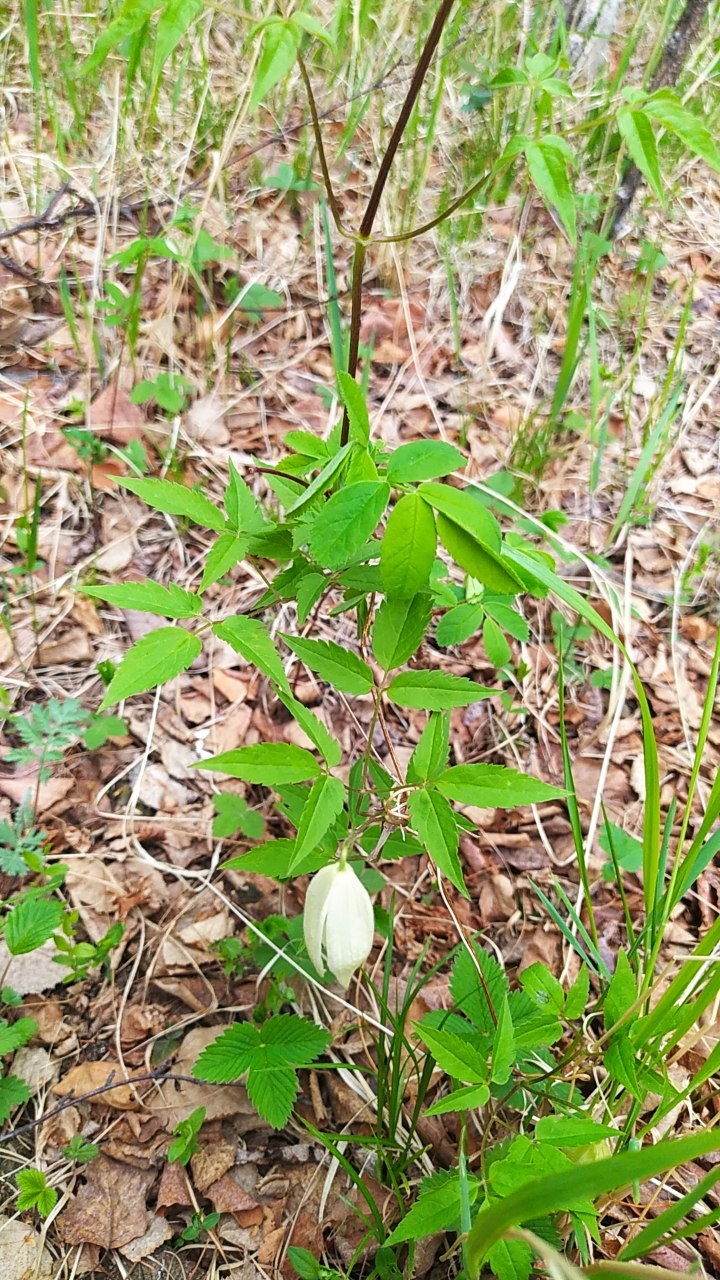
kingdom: Plantae
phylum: Tracheophyta
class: Magnoliopsida
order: Ranunculales
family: Ranunculaceae
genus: Clematis
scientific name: Clematis sibirica
